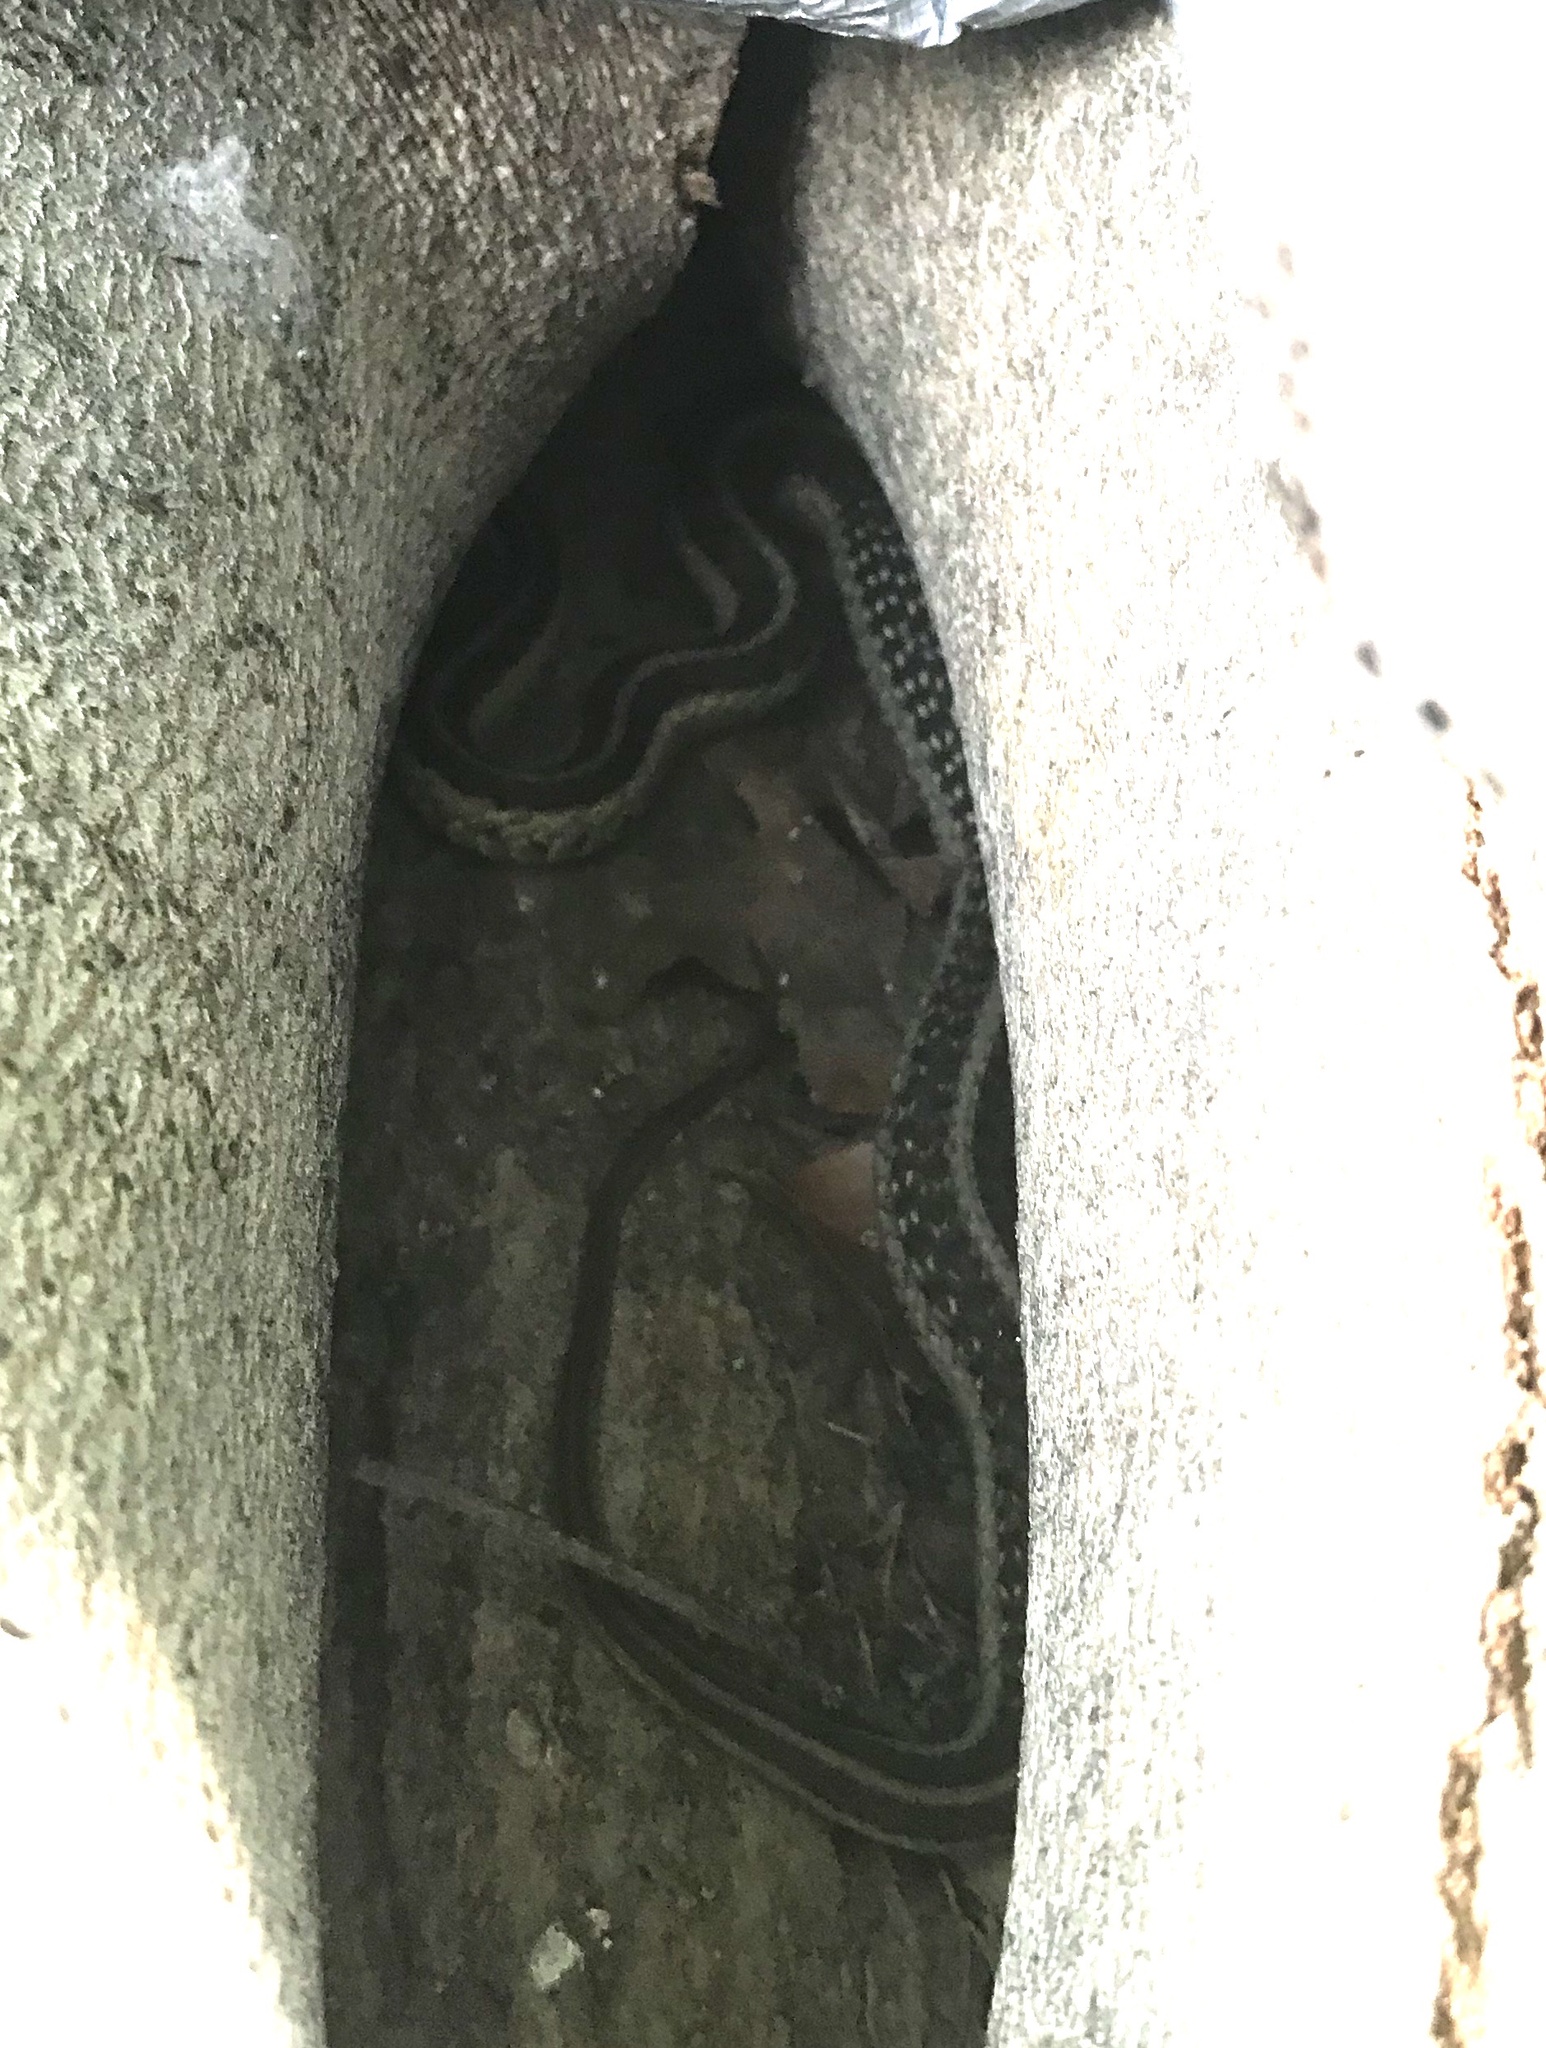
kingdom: Animalia
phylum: Chordata
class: Squamata
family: Colubridae
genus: Thamnophis
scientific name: Thamnophis sirtalis
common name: Common garter snake
